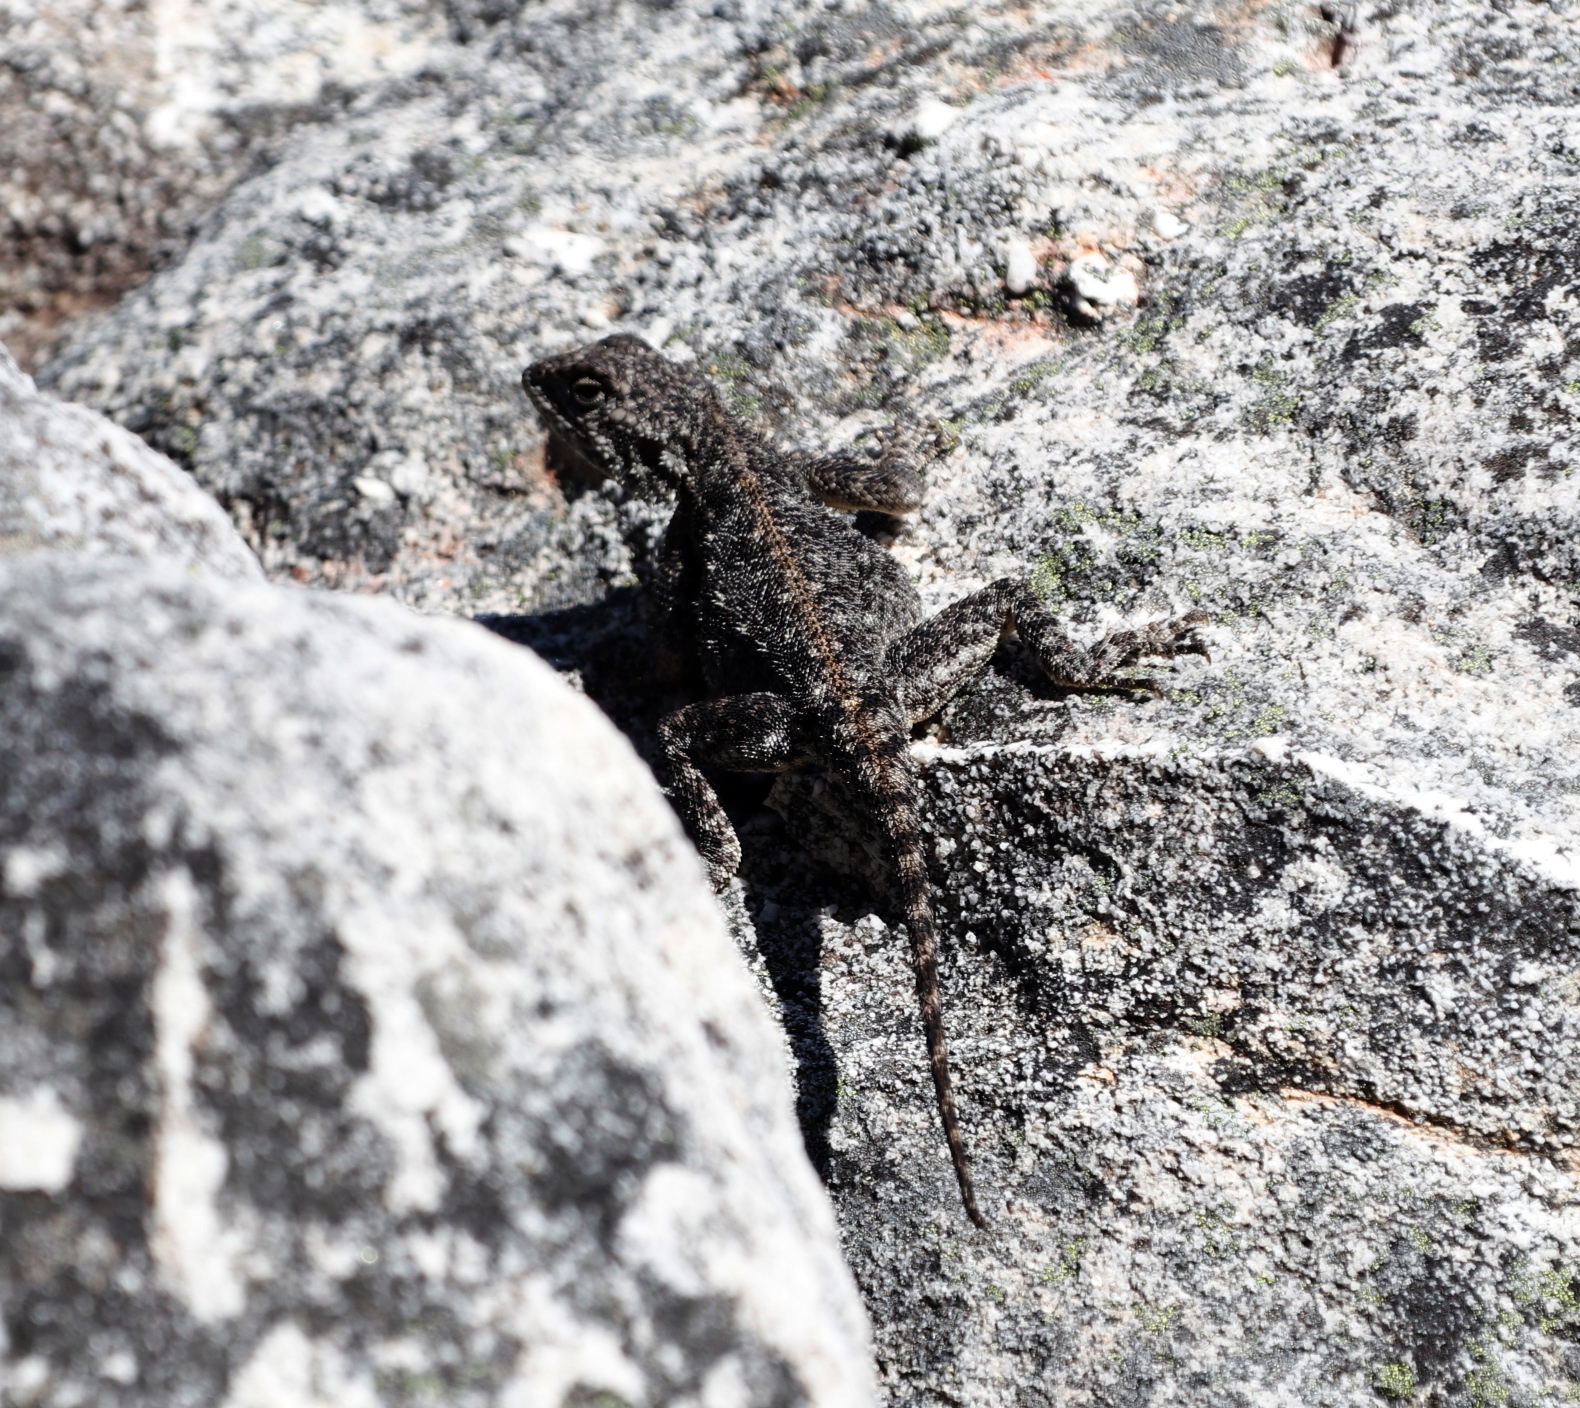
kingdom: Animalia
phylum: Chordata
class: Squamata
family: Agamidae
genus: Agama
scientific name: Agama atra
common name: Southern african rock agama
